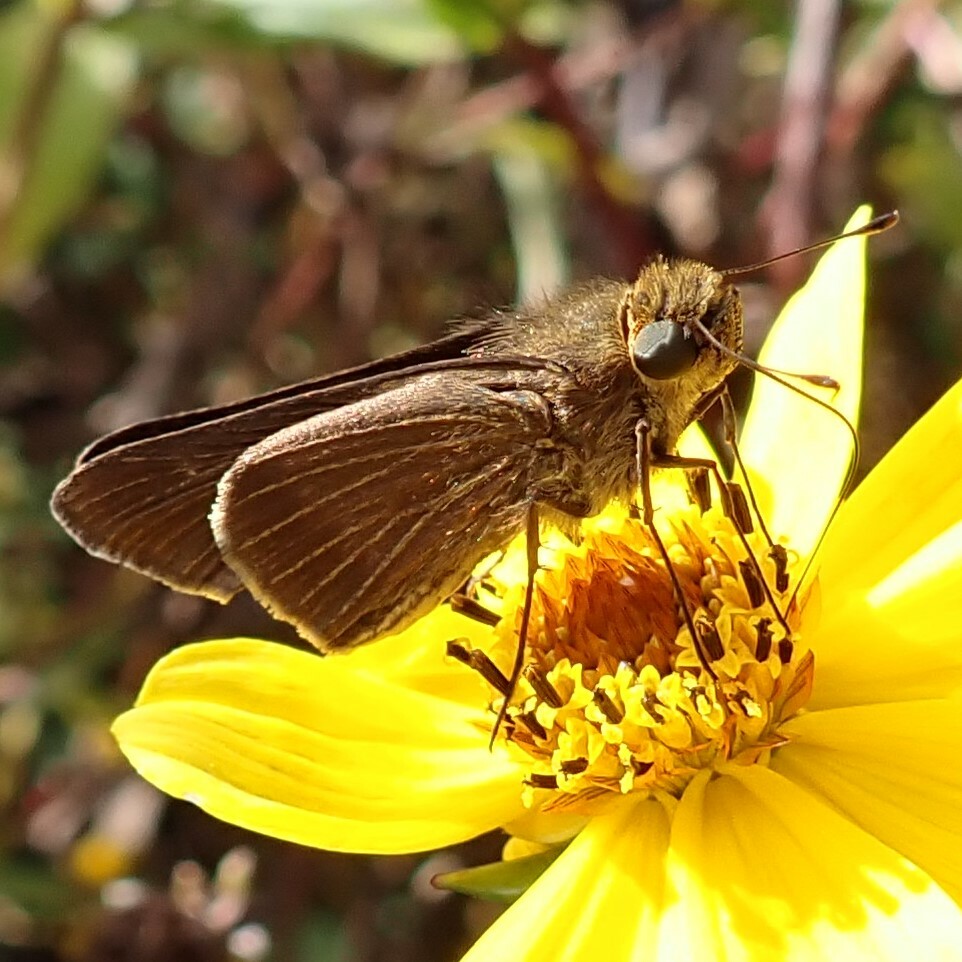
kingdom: Animalia
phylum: Arthropoda
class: Insecta
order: Lepidoptera
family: Hesperiidae
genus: Panoquina
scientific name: Panoquina ocola
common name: Ocola skipper
